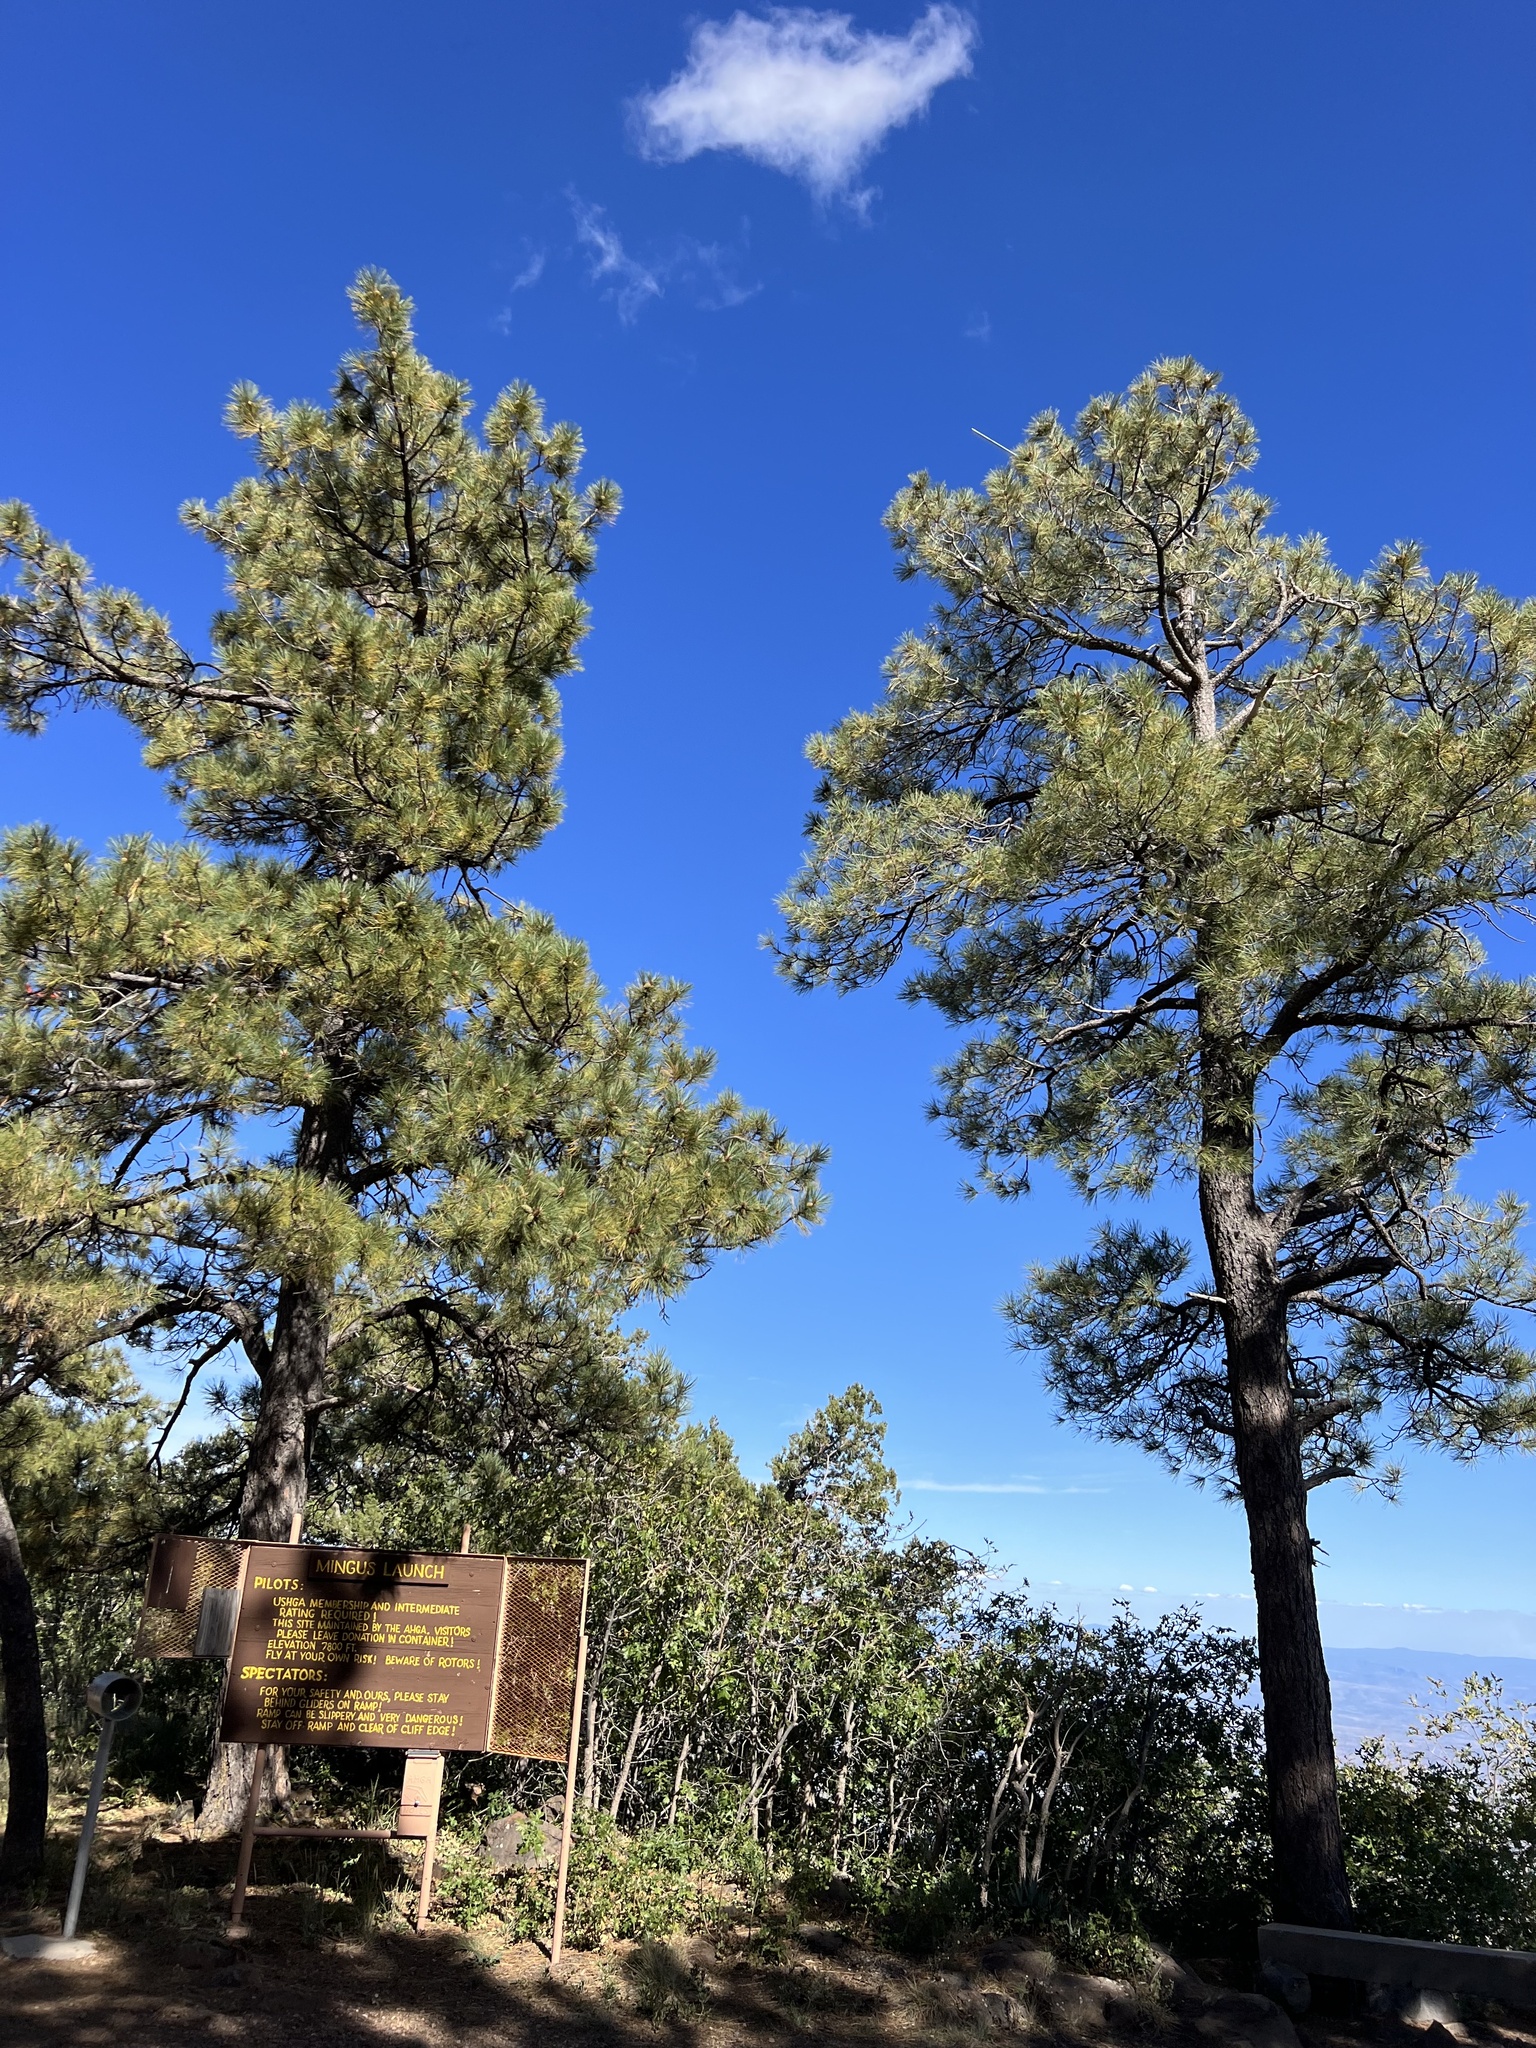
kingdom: Plantae
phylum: Tracheophyta
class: Pinopsida
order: Pinales
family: Pinaceae
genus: Pinus
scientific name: Pinus ponderosa
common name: Western yellow-pine
